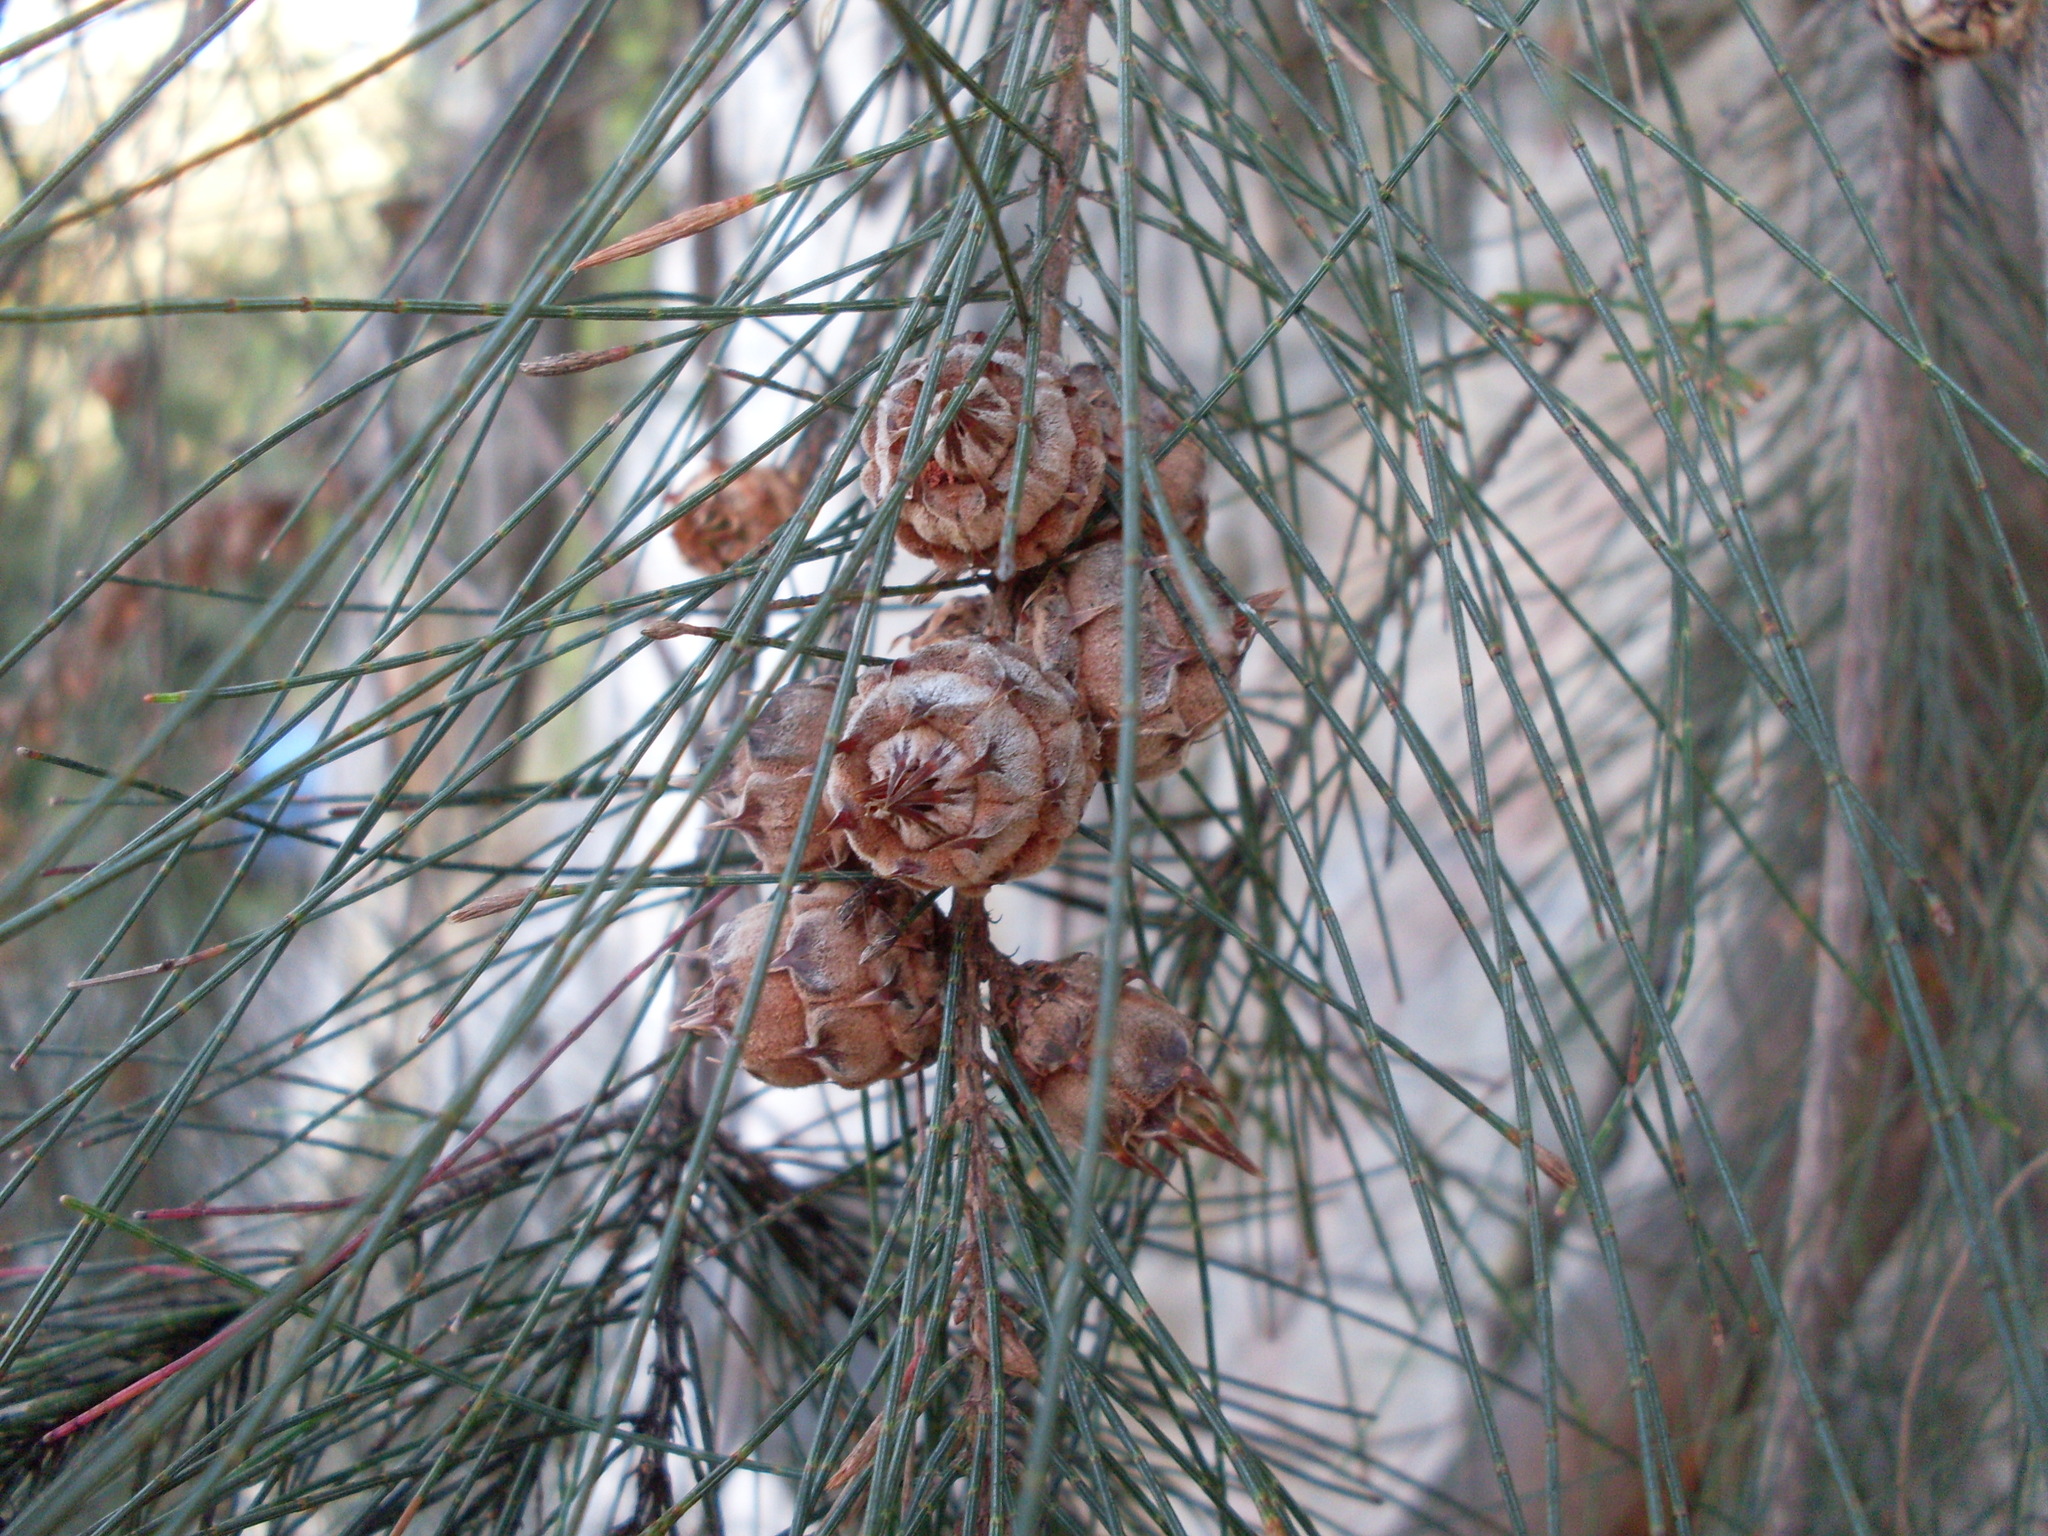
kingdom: Animalia
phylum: Arthropoda
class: Insecta
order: Hemiptera
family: Eriococcidae
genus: Cylindrococcus
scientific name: Cylindrococcus spiniferus
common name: Casuarina gall
